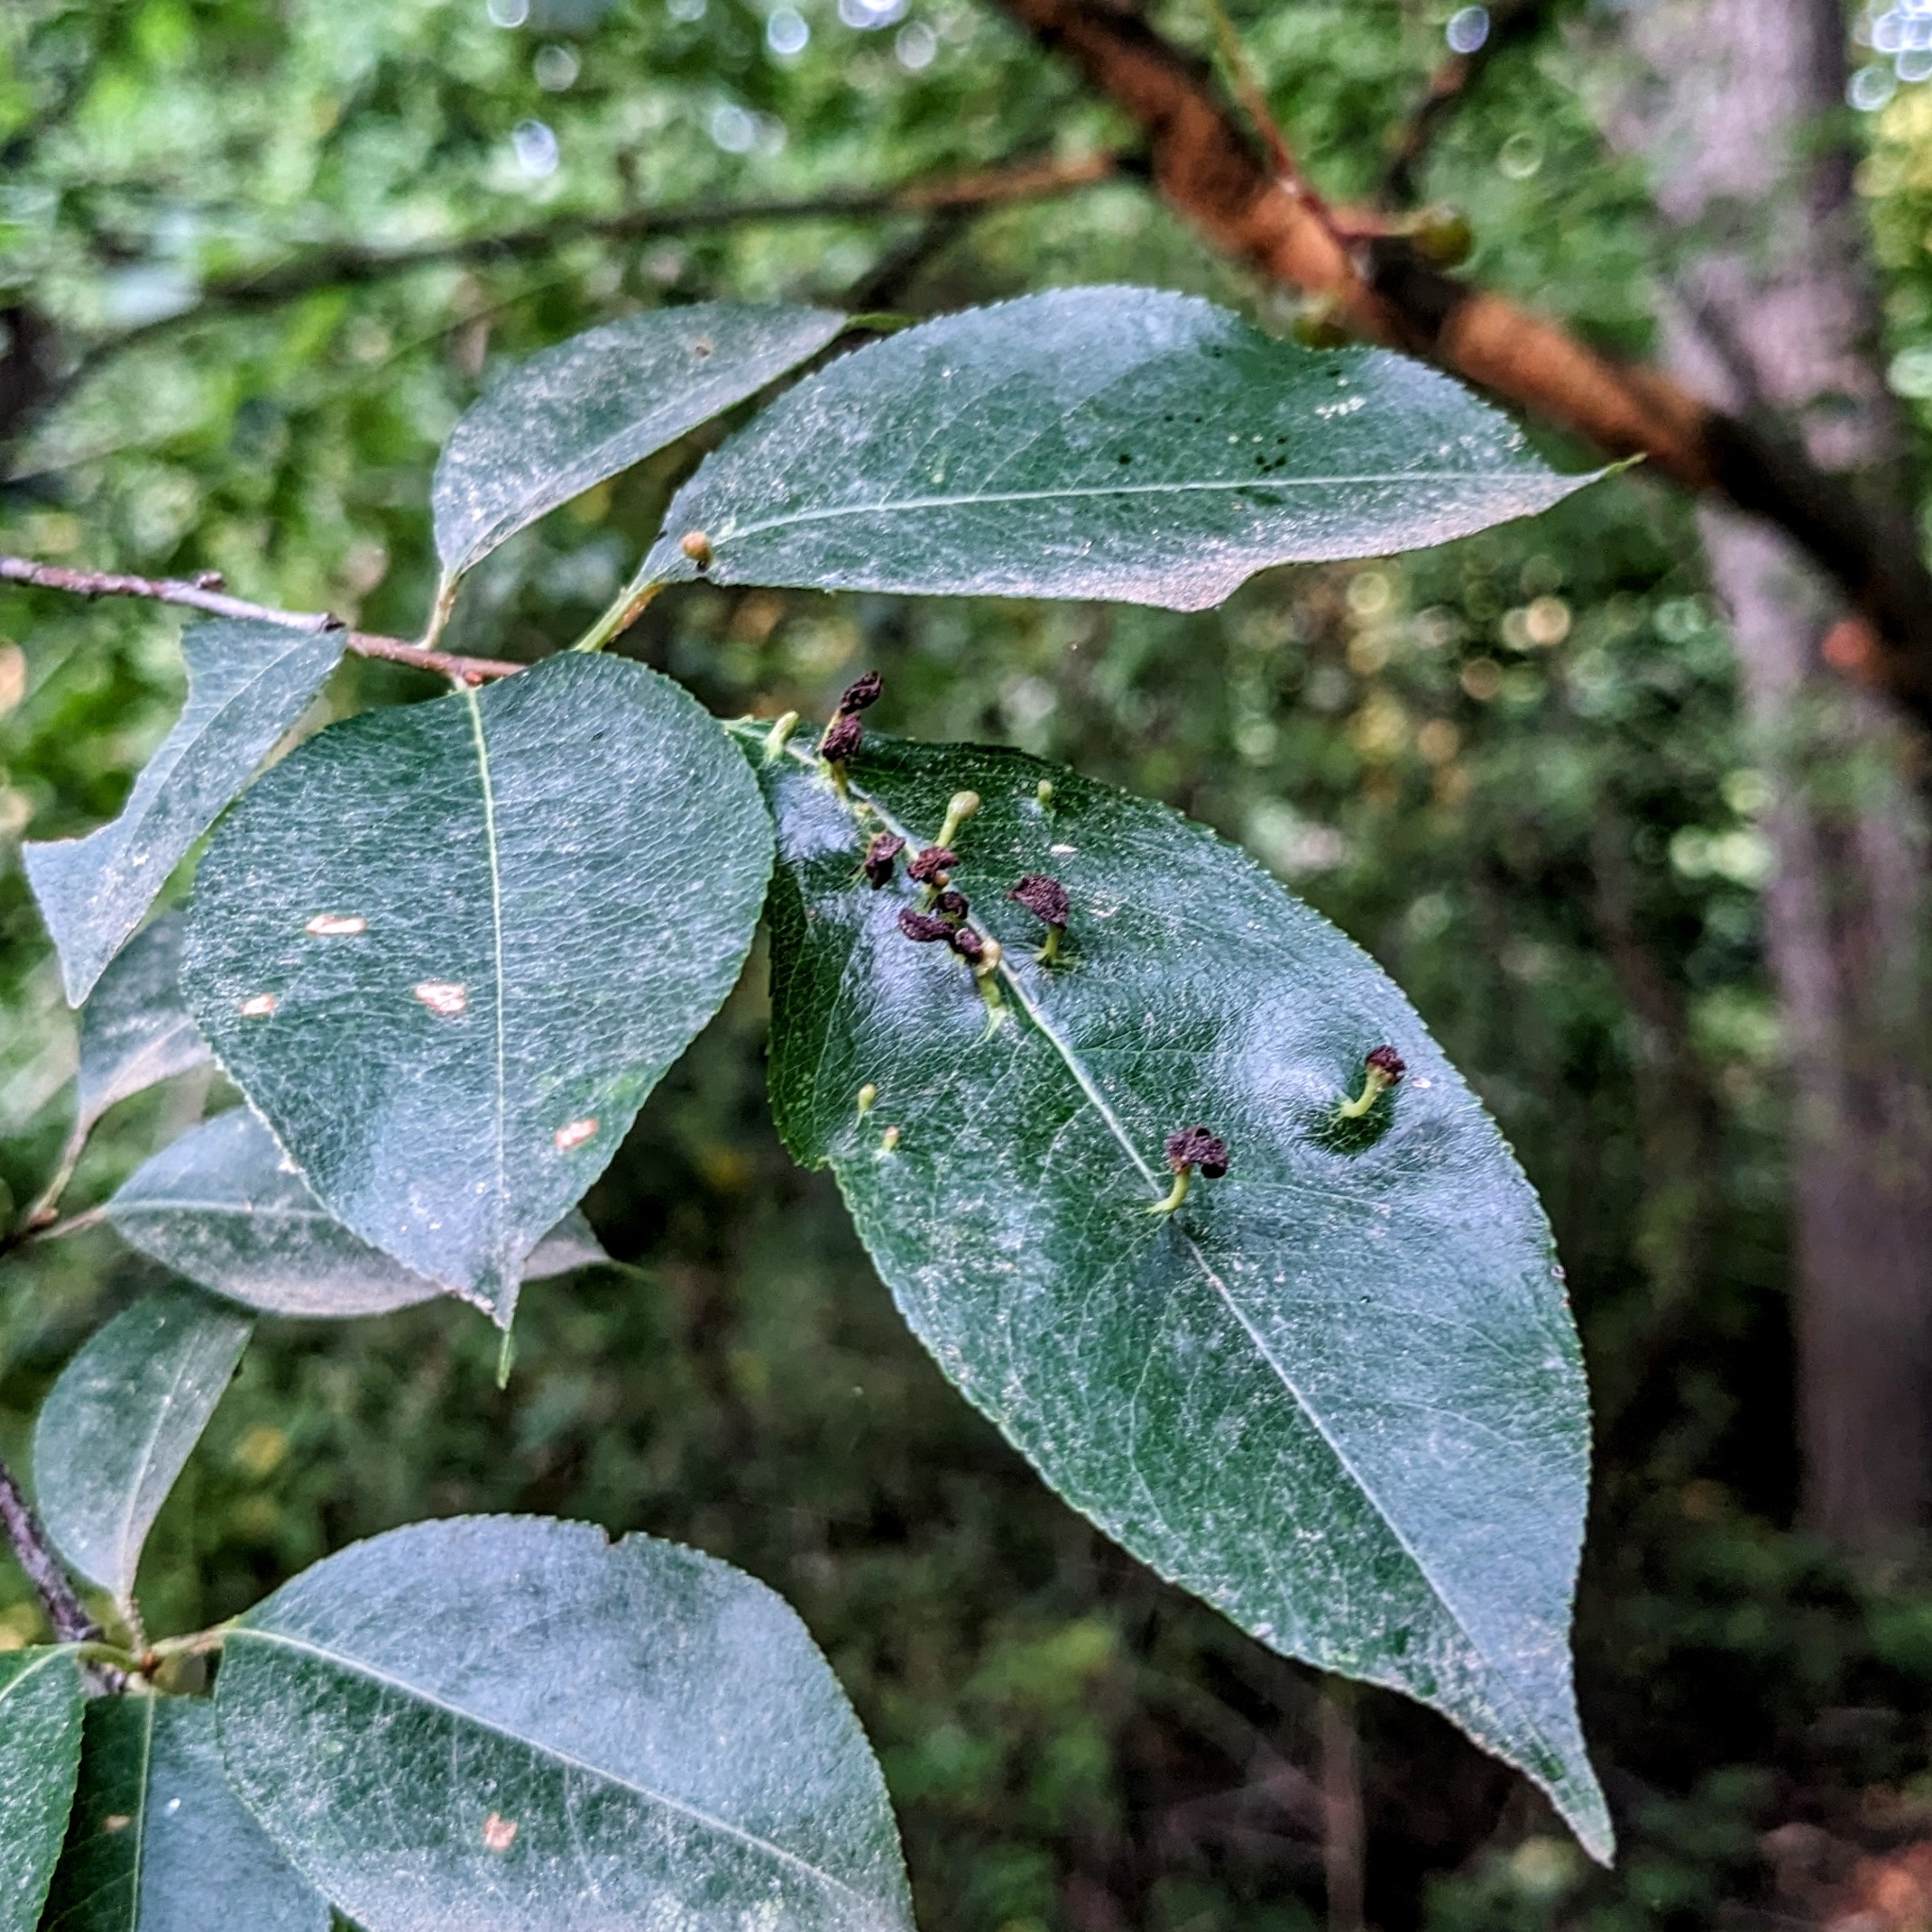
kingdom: Animalia
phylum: Arthropoda
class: Arachnida
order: Trombidiformes
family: Eriophyidae
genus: Eriophyes
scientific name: Eriophyes
